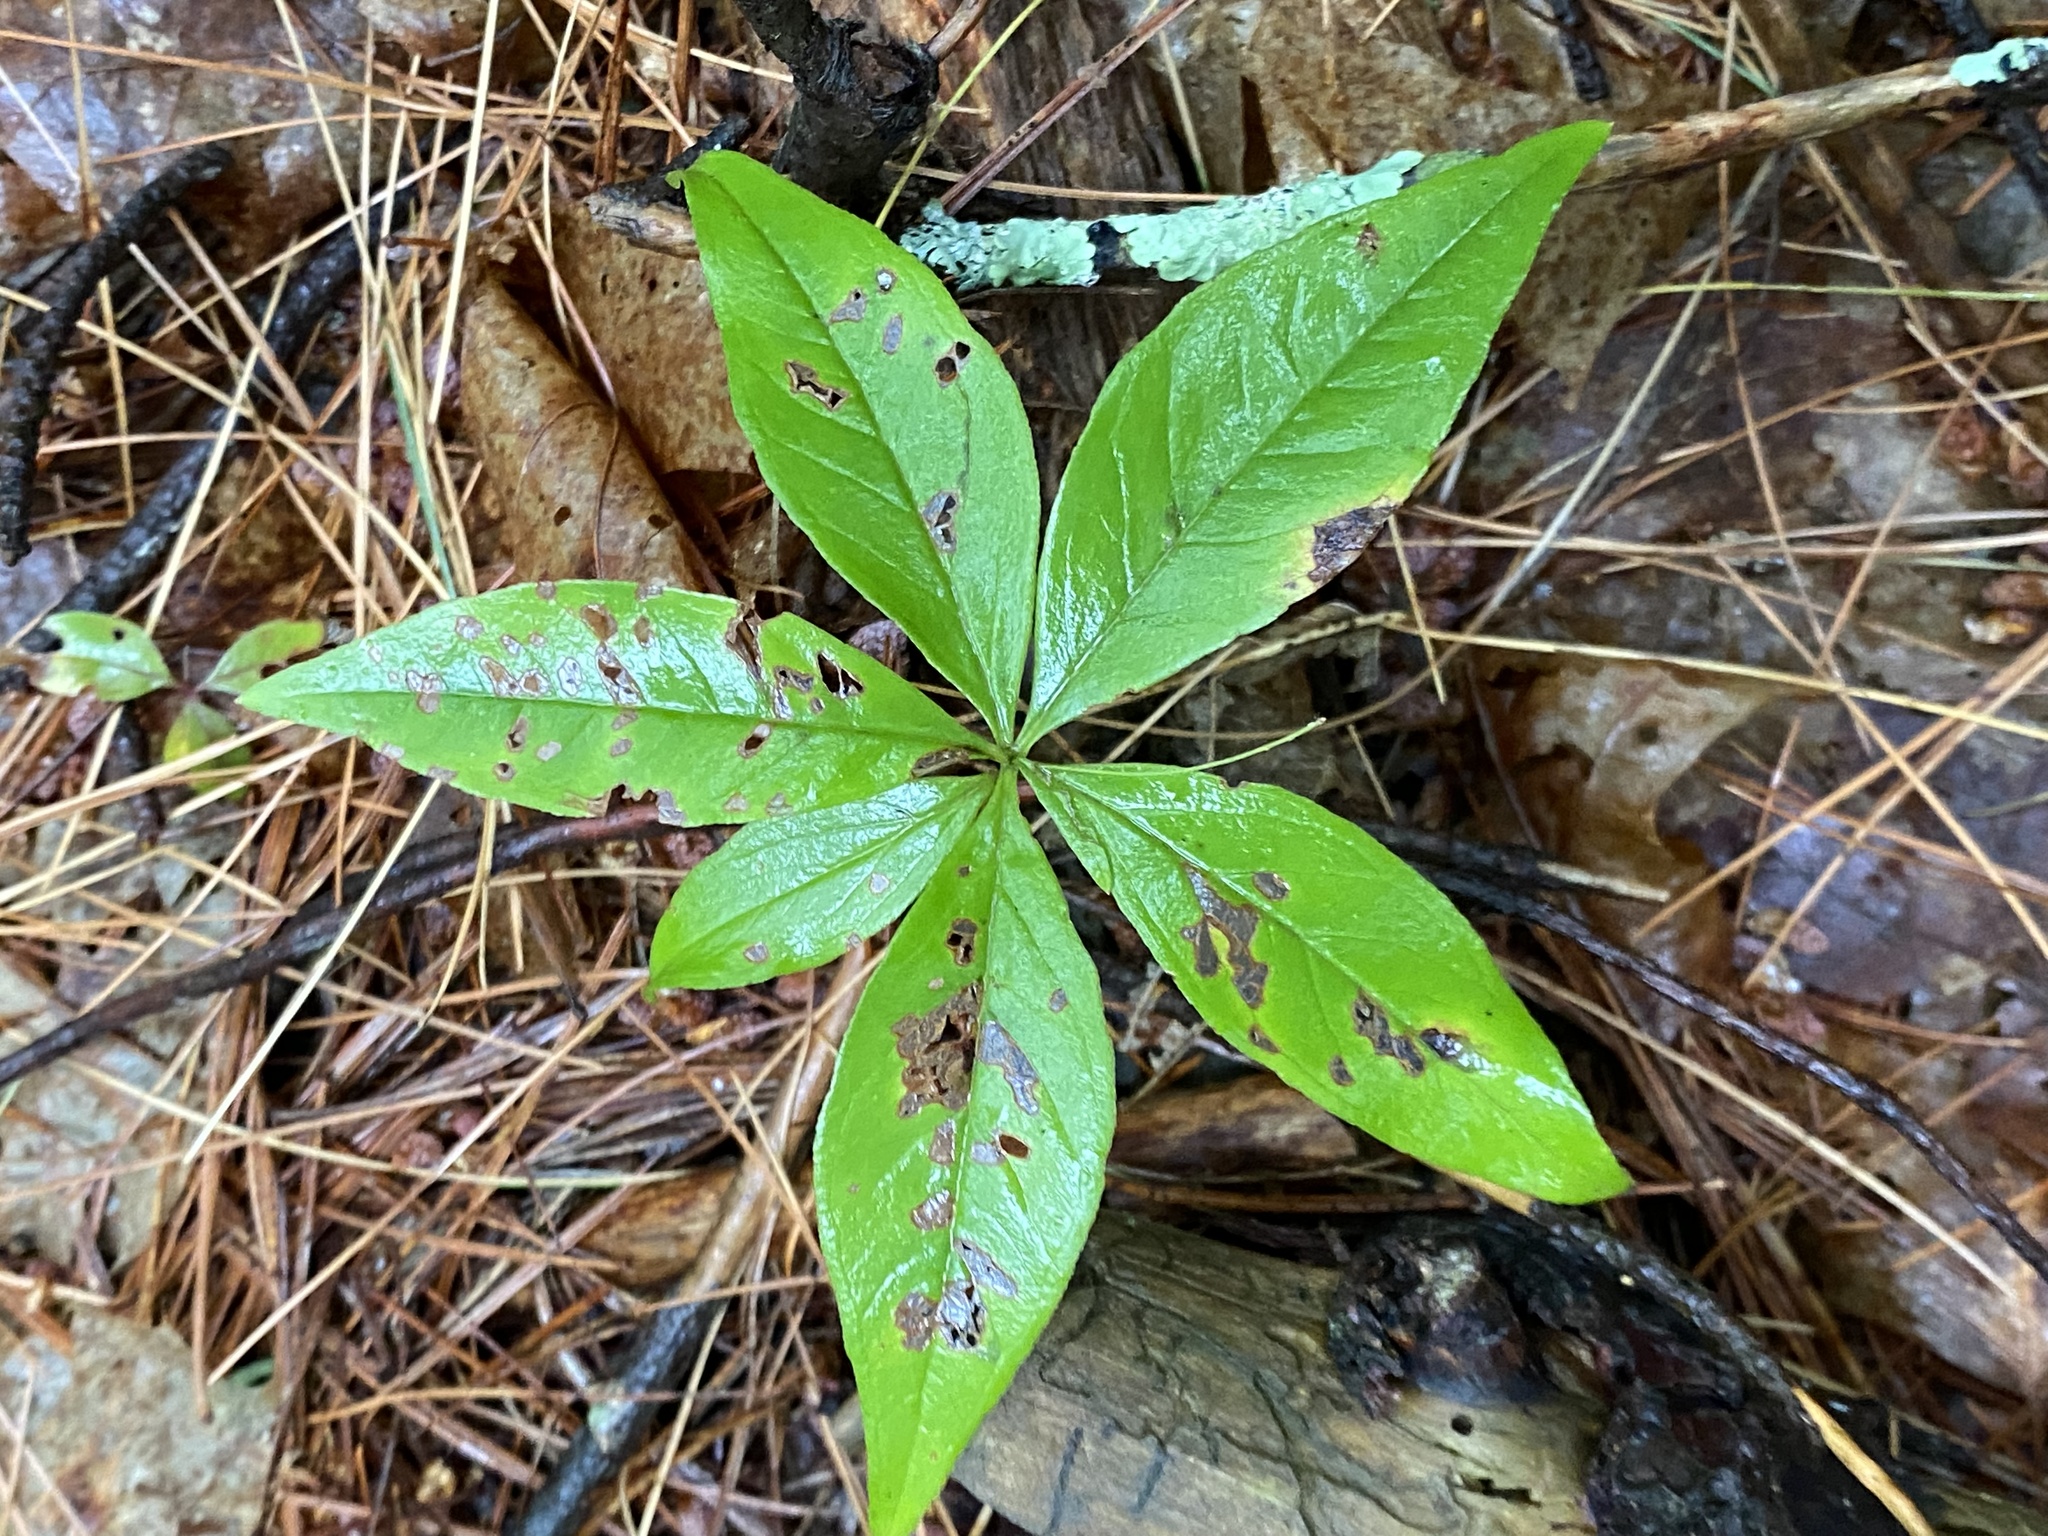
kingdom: Plantae
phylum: Tracheophyta
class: Magnoliopsida
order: Ericales
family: Primulaceae
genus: Lysimachia
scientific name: Lysimachia borealis
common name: American starflower
